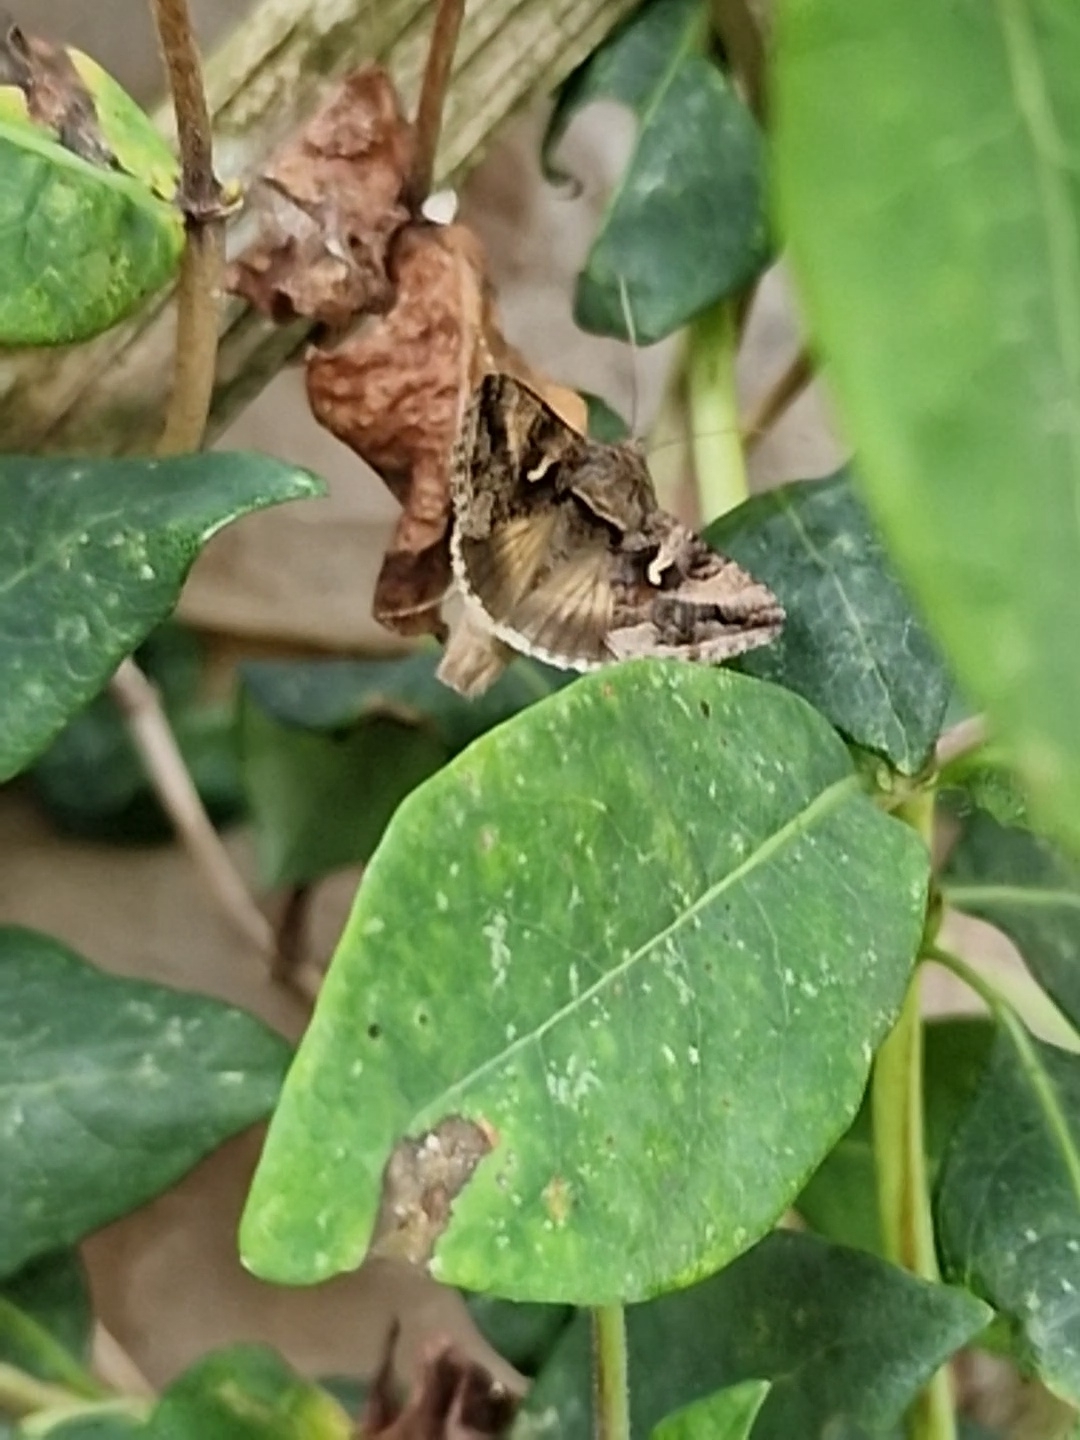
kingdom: Animalia
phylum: Arthropoda
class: Insecta
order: Lepidoptera
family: Noctuidae
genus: Autographa
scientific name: Autographa gamma
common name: Silver y
